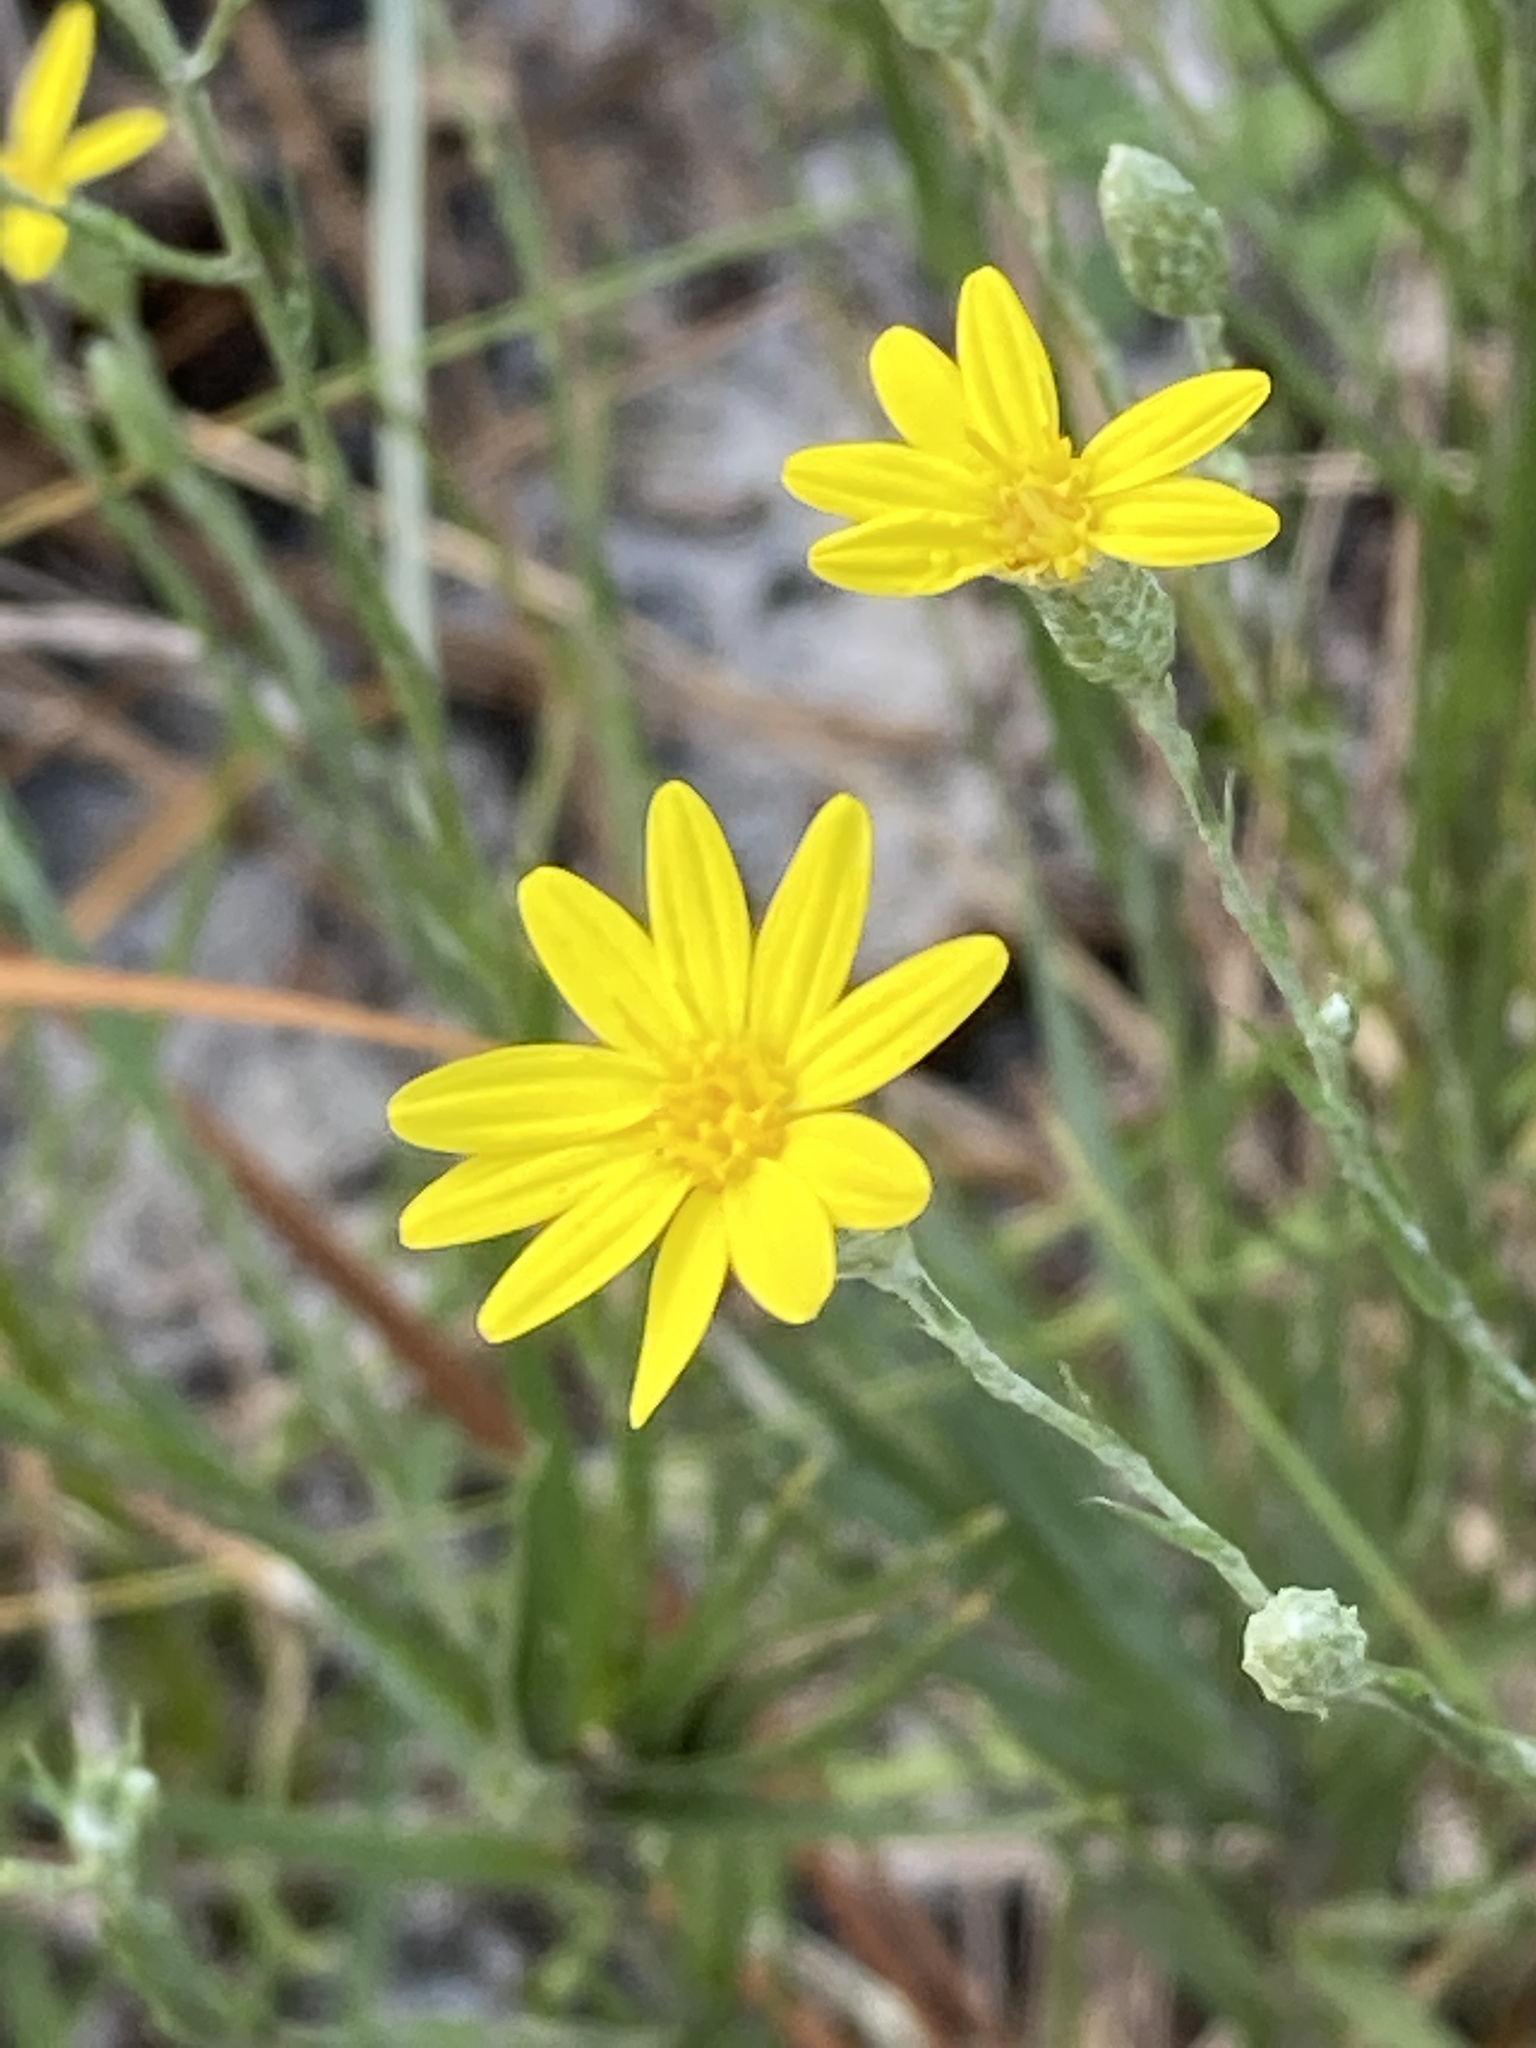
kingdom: Plantae
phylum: Tracheophyta
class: Magnoliopsida
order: Asterales
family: Asteraceae
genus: Pityopsis
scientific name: Pityopsis graminifolia
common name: Grass-leaf golden-aster
